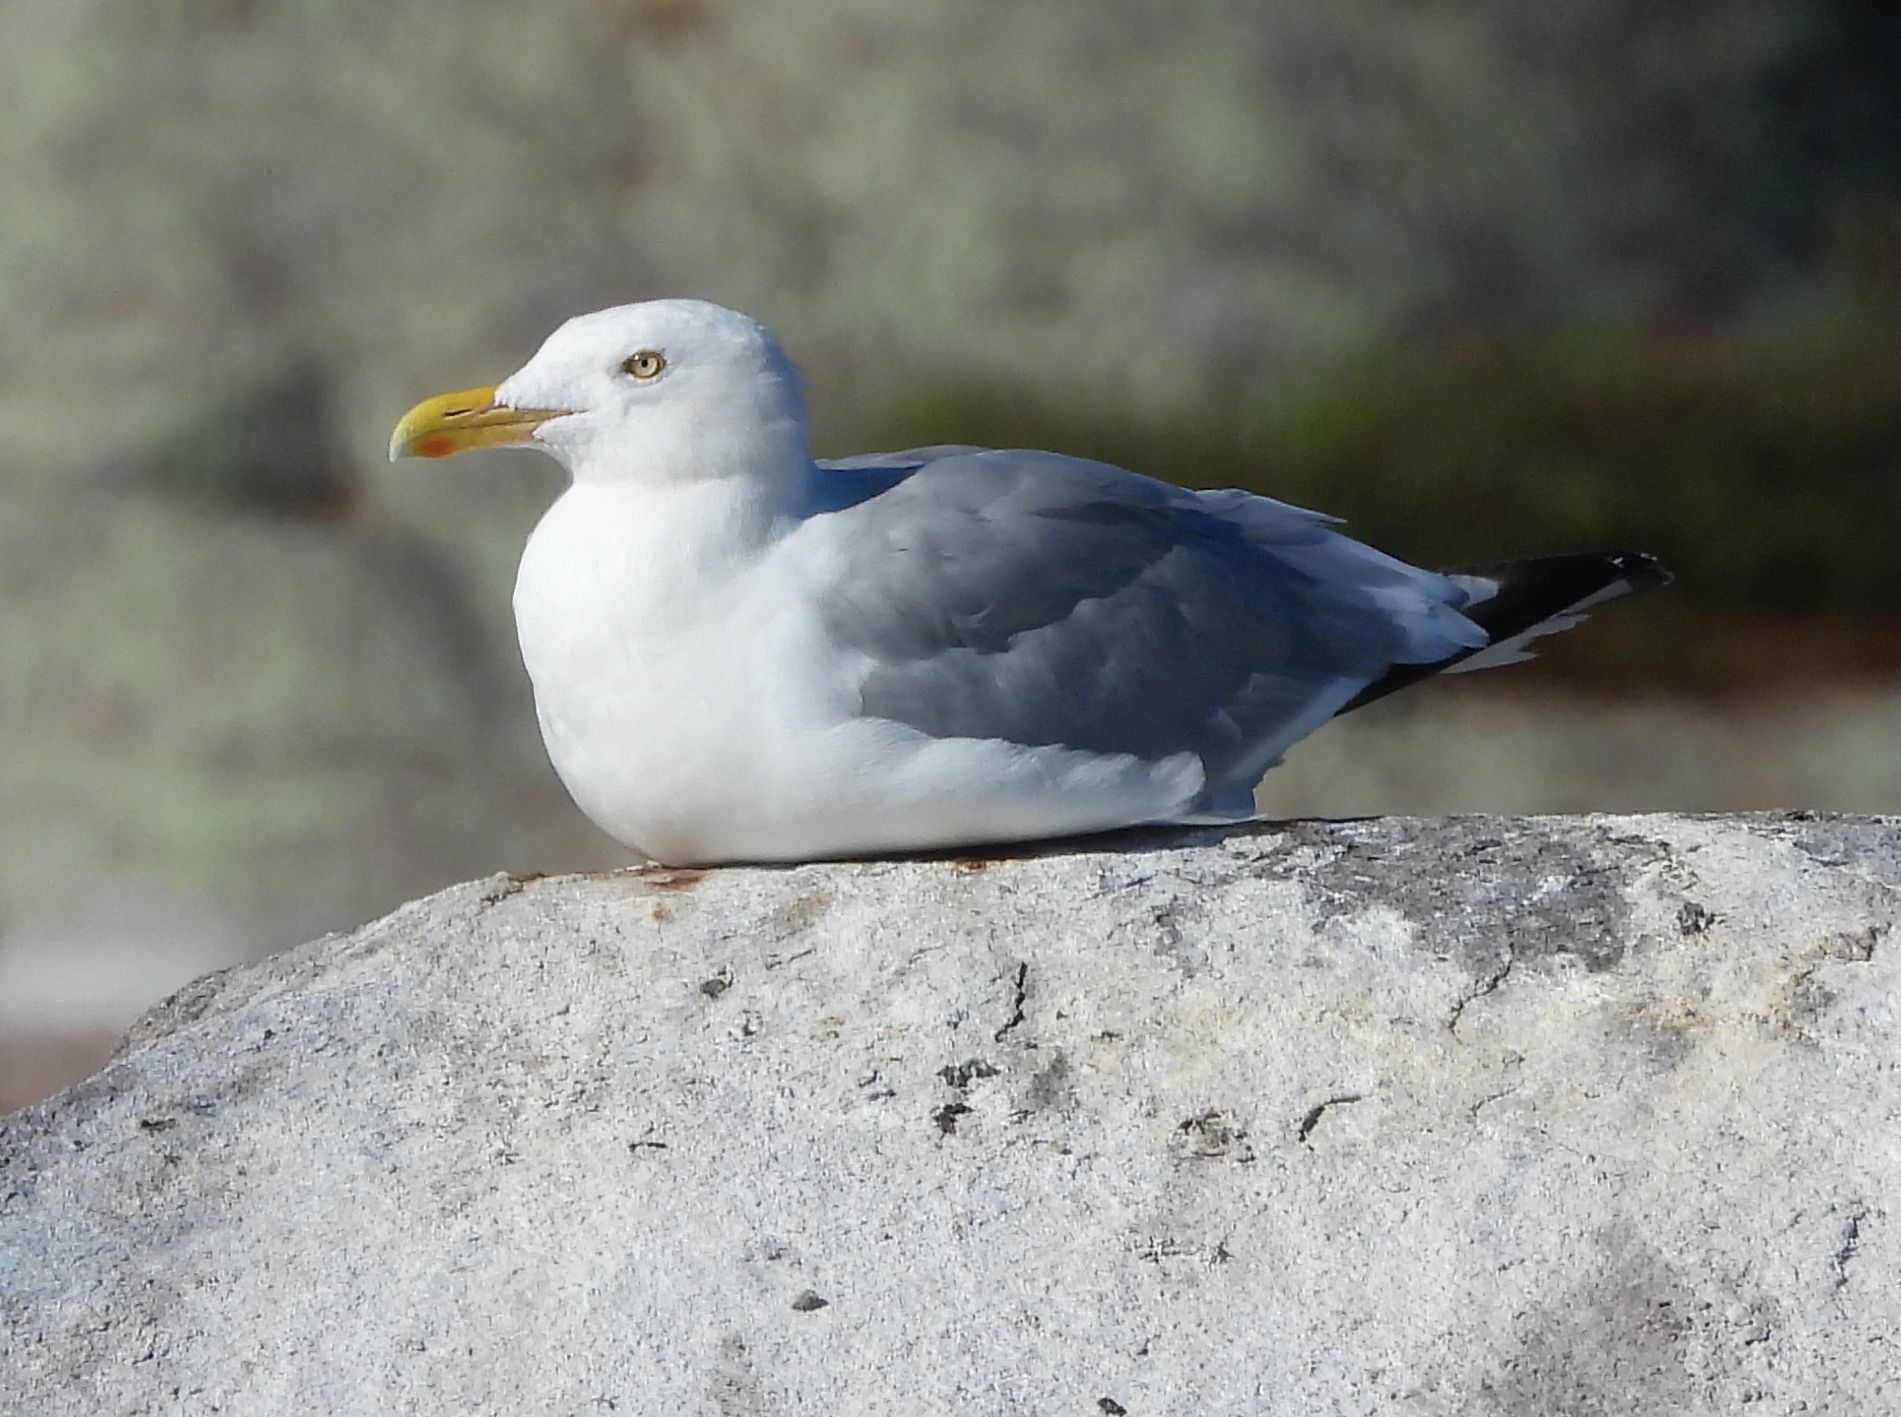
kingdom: Animalia
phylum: Chordata
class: Aves
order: Charadriiformes
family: Laridae
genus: Larus
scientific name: Larus argentatus
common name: Herring gull
